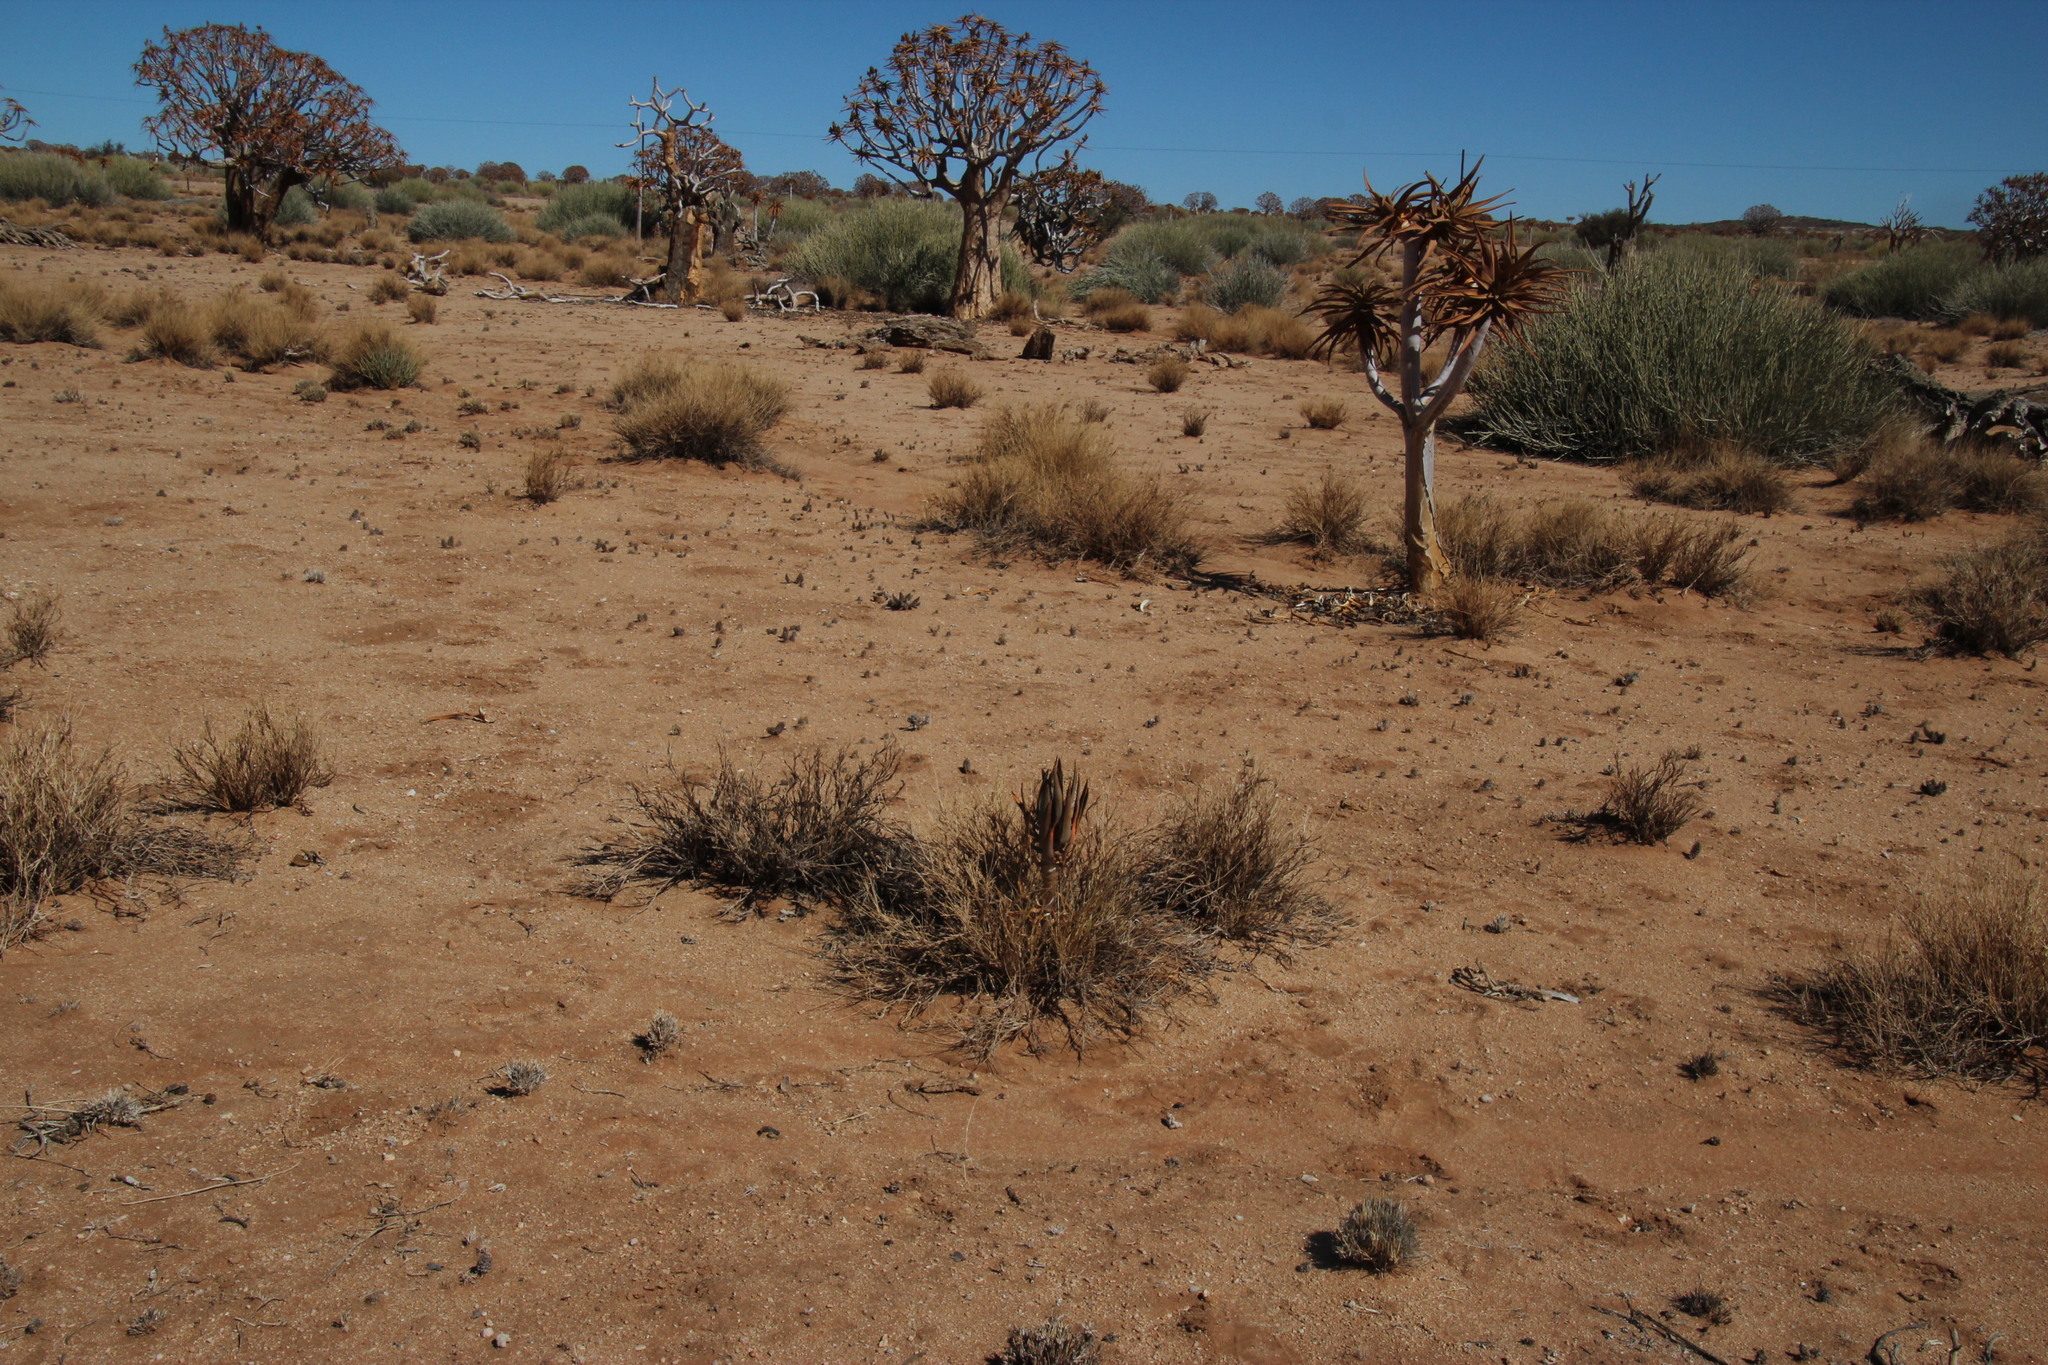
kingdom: Plantae
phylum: Tracheophyta
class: Liliopsida
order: Asparagales
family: Asphodelaceae
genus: Aloidendron
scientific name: Aloidendron dichotomum
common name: Quiver tree
